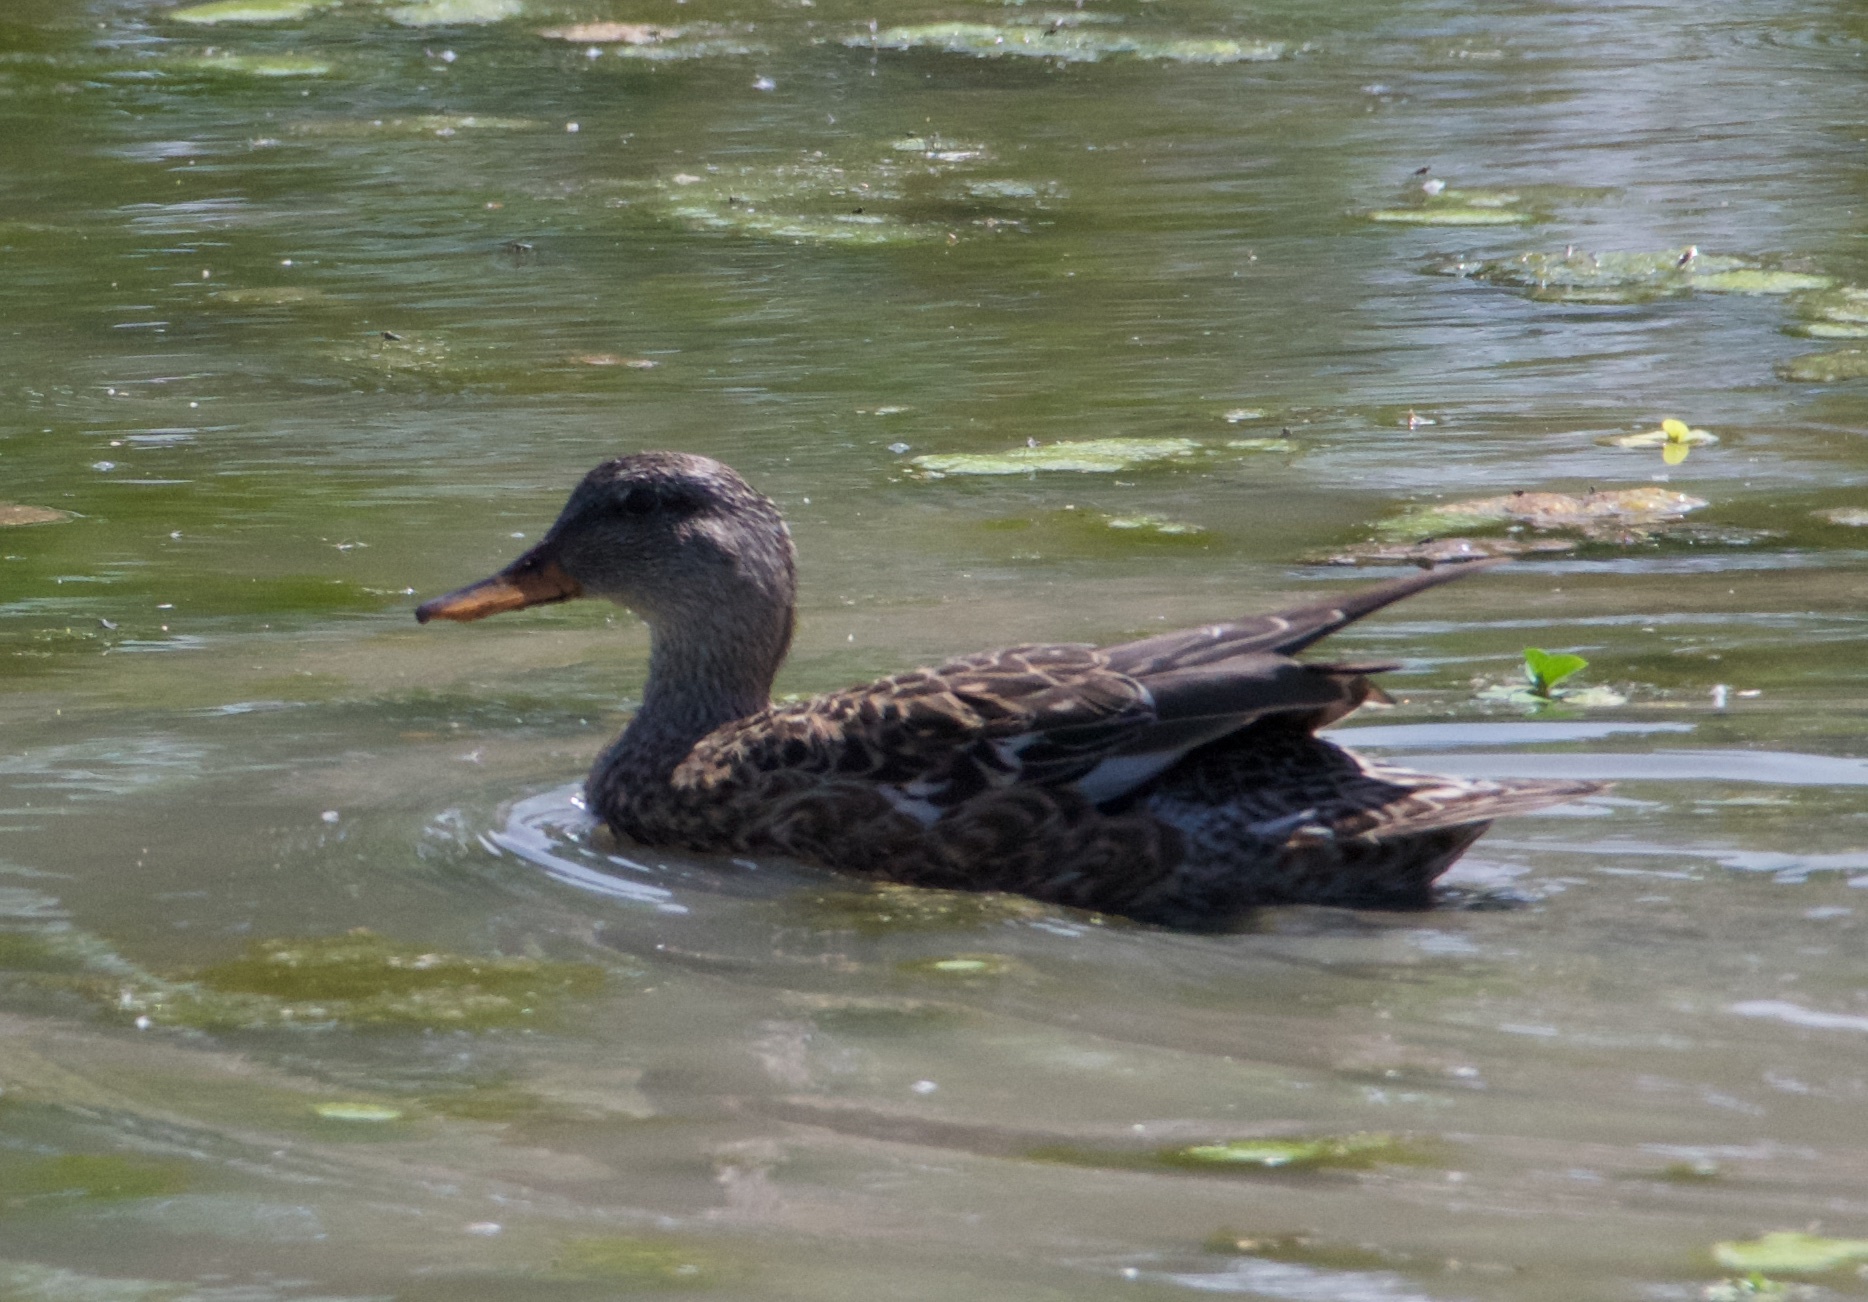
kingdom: Animalia
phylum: Chordata
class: Aves
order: Anseriformes
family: Anatidae
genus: Mareca
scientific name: Mareca strepera
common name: Gadwall
